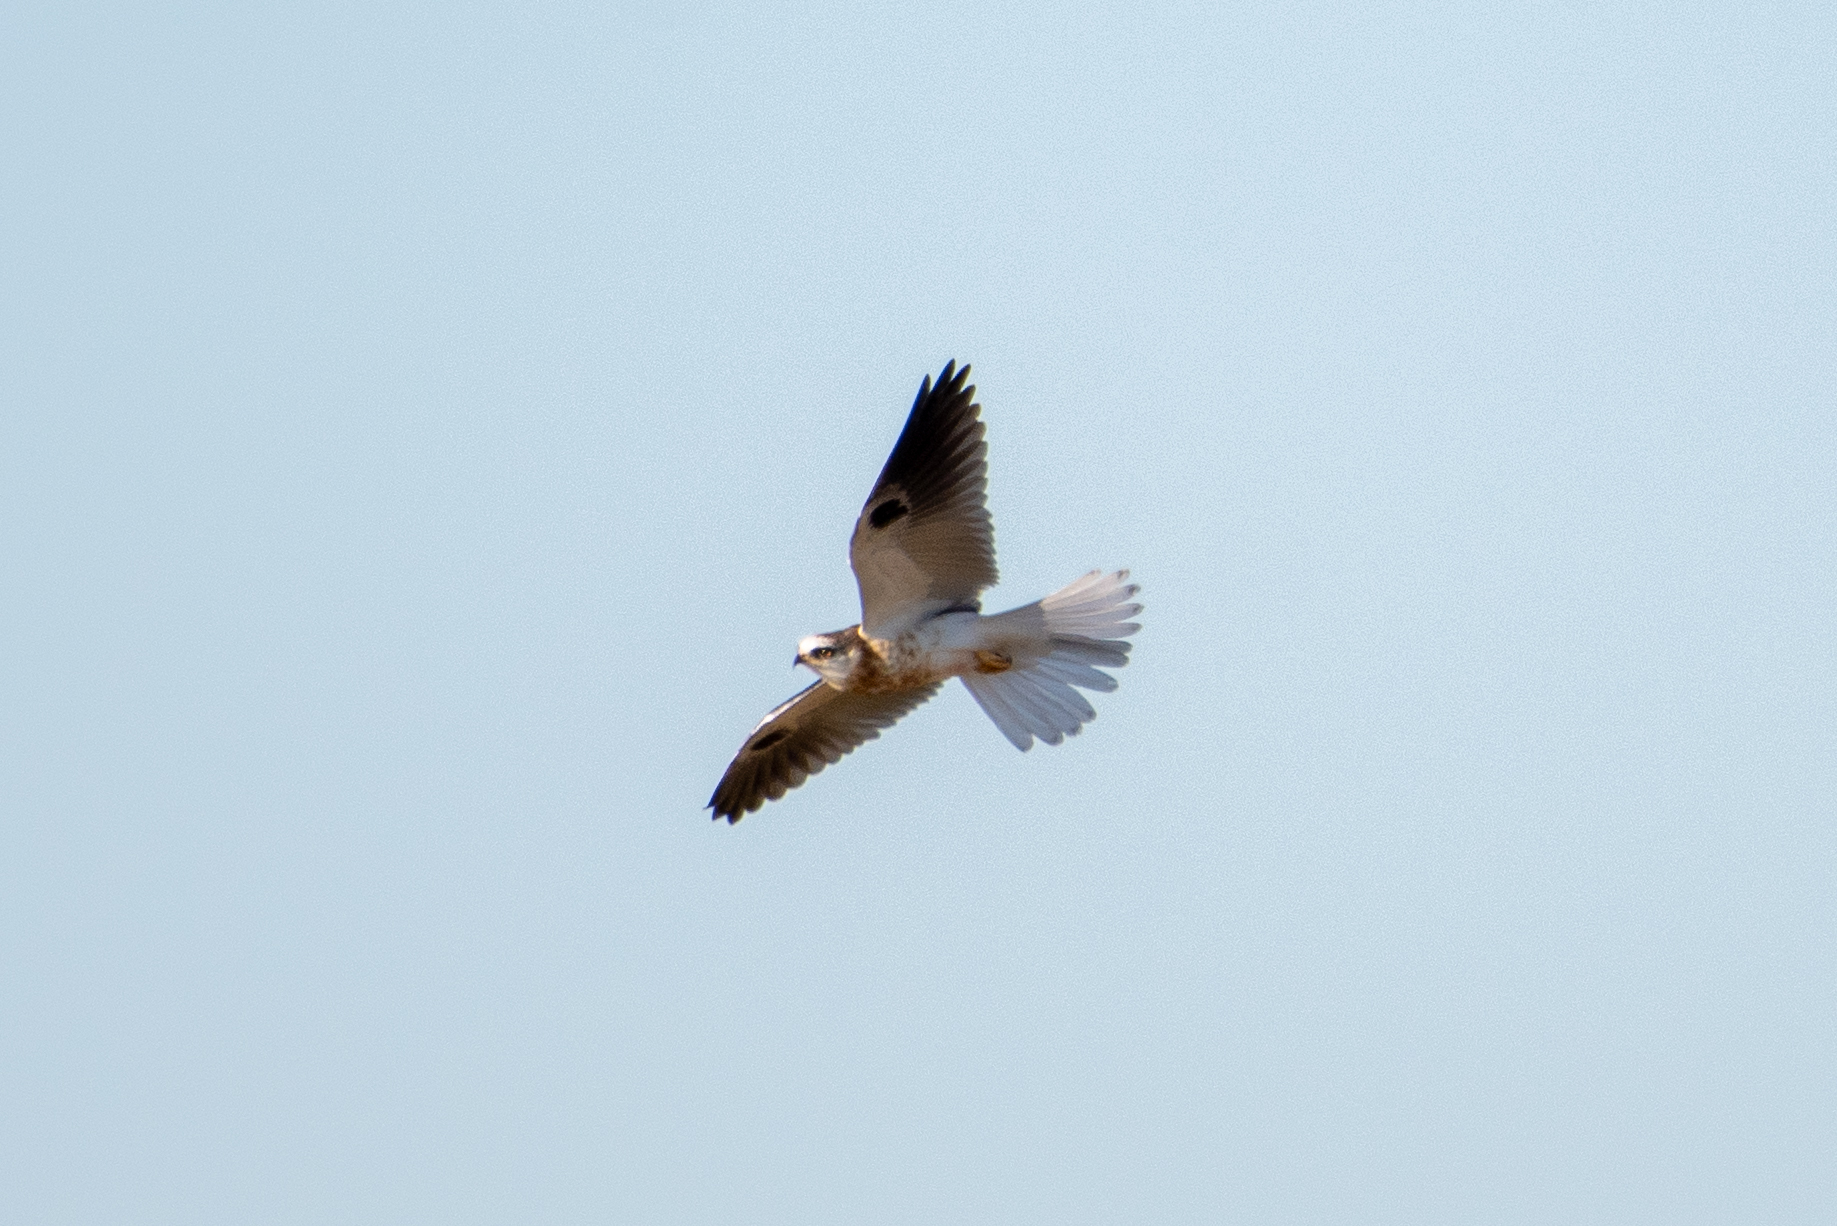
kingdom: Animalia
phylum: Chordata
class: Aves
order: Accipitriformes
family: Accipitridae
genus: Elanus
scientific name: Elanus leucurus
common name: White-tailed kite
